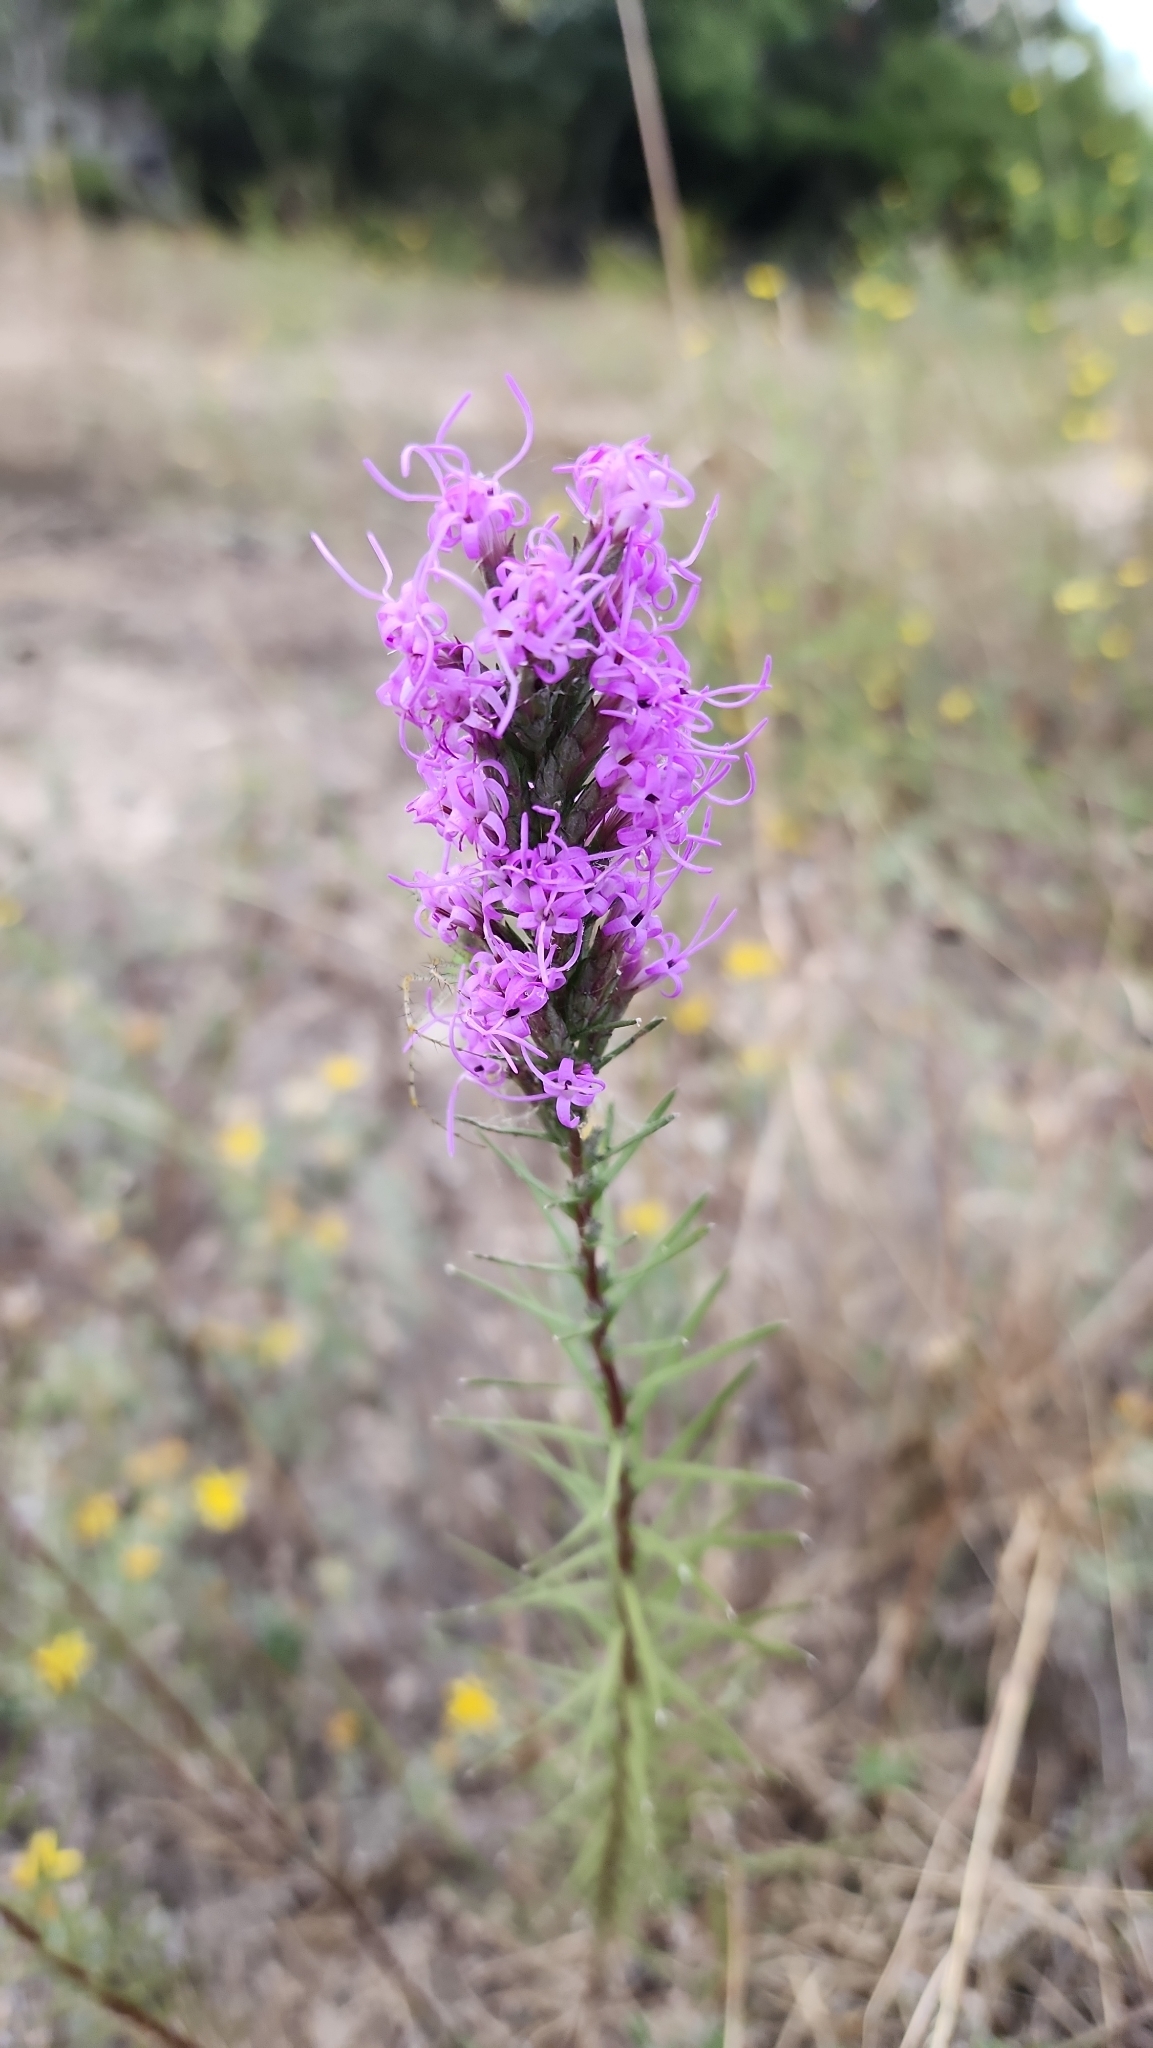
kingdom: Plantae
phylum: Tracheophyta
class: Magnoliopsida
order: Asterales
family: Asteraceae
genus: Liatris
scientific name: Liatris punctata
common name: Dotted gayfeather
